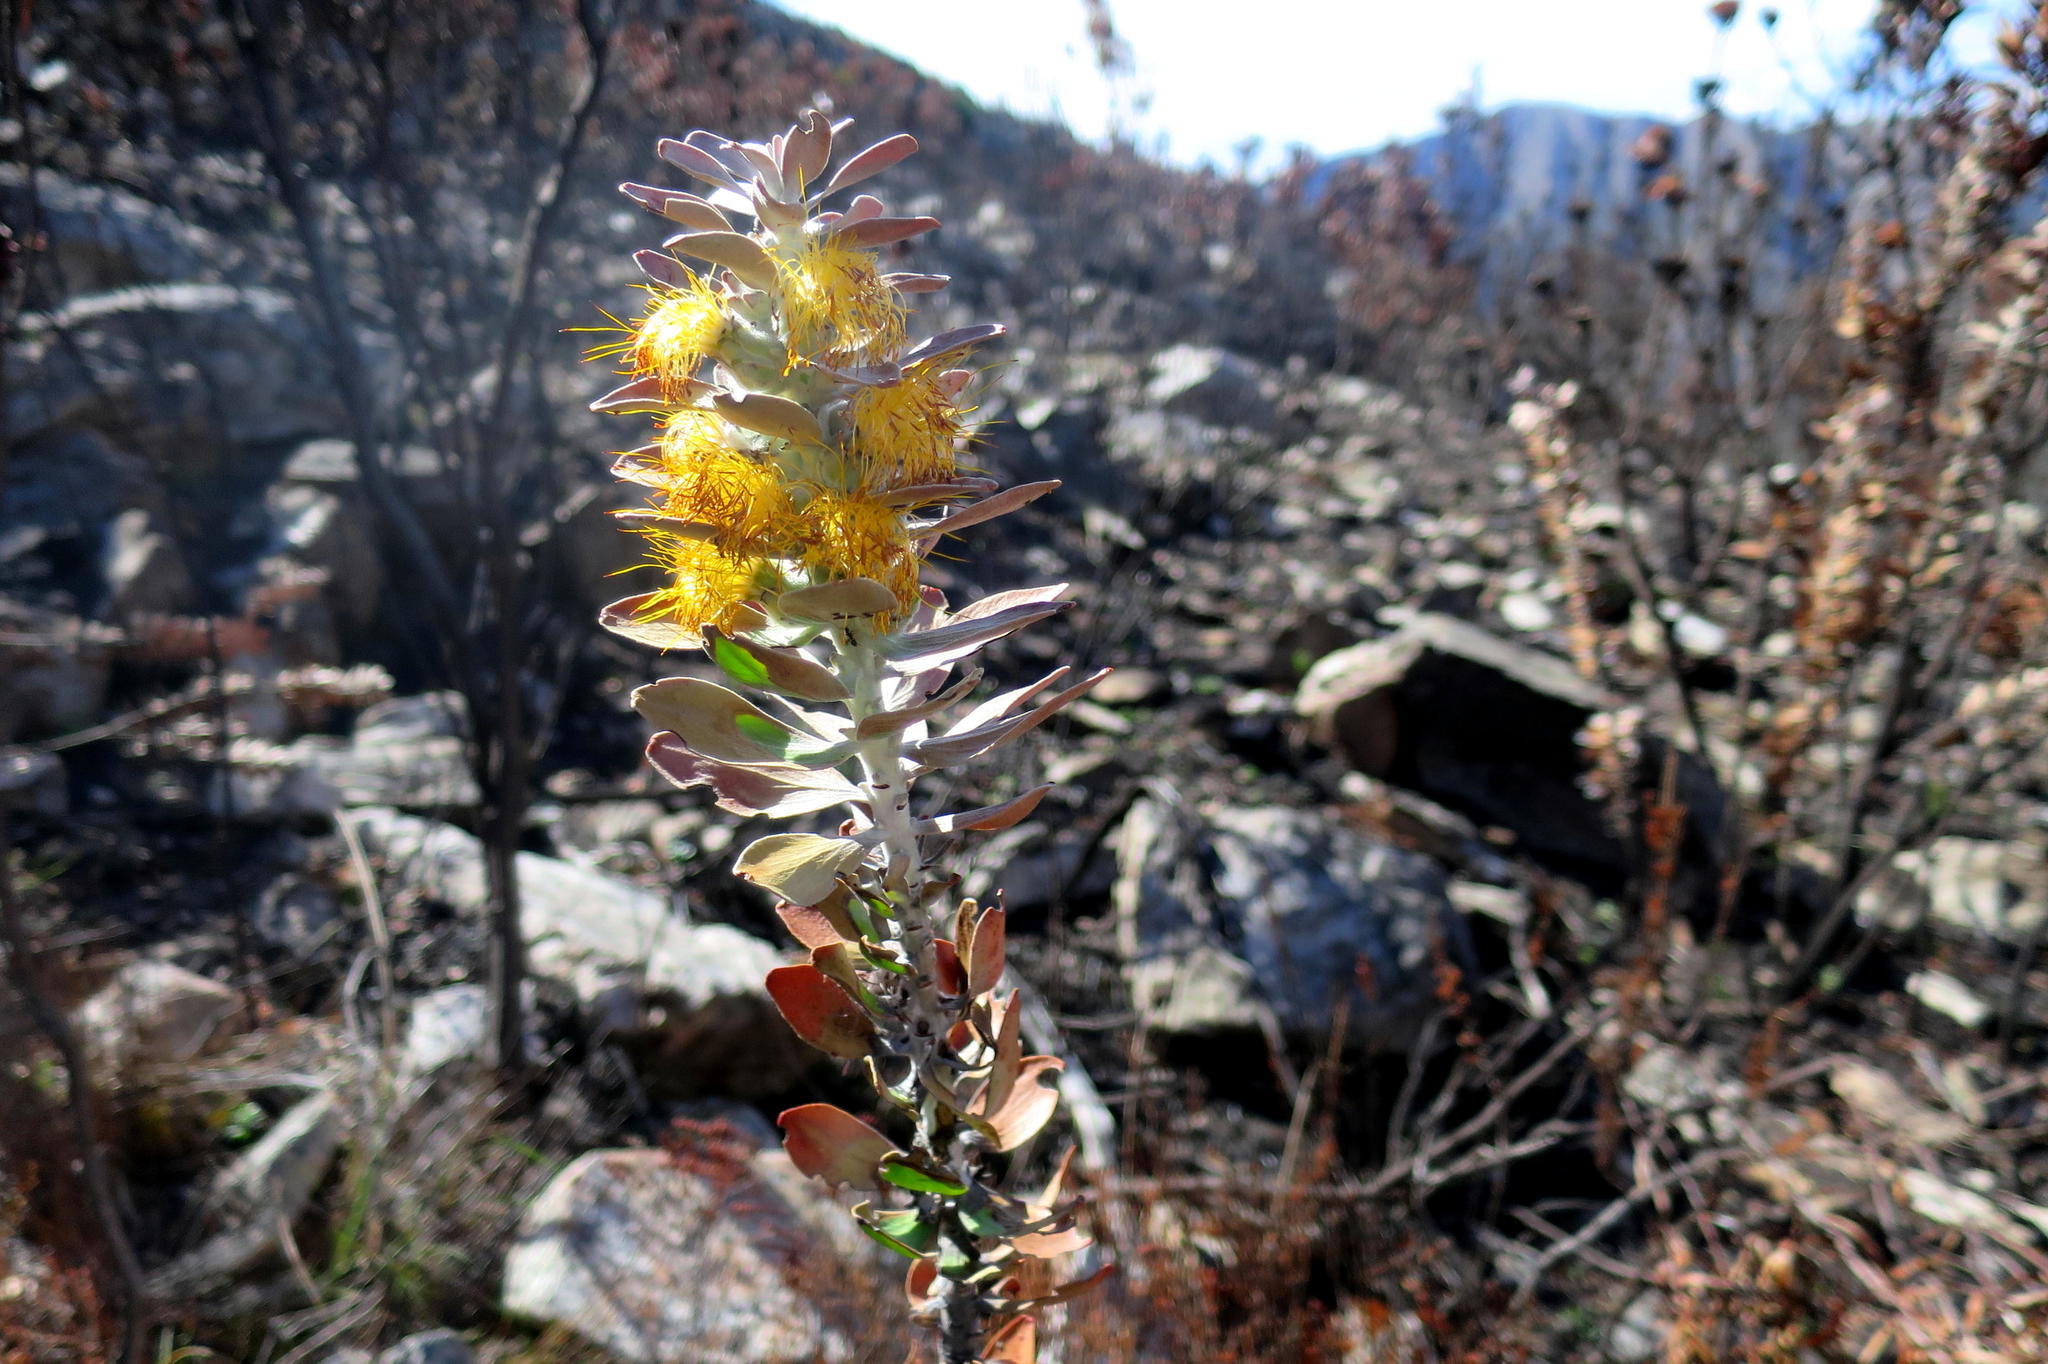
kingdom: Plantae
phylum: Tracheophyta
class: Magnoliopsida
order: Proteales
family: Proteaceae
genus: Mimetes
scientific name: Mimetes chrysanthus
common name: Golden pagoda
